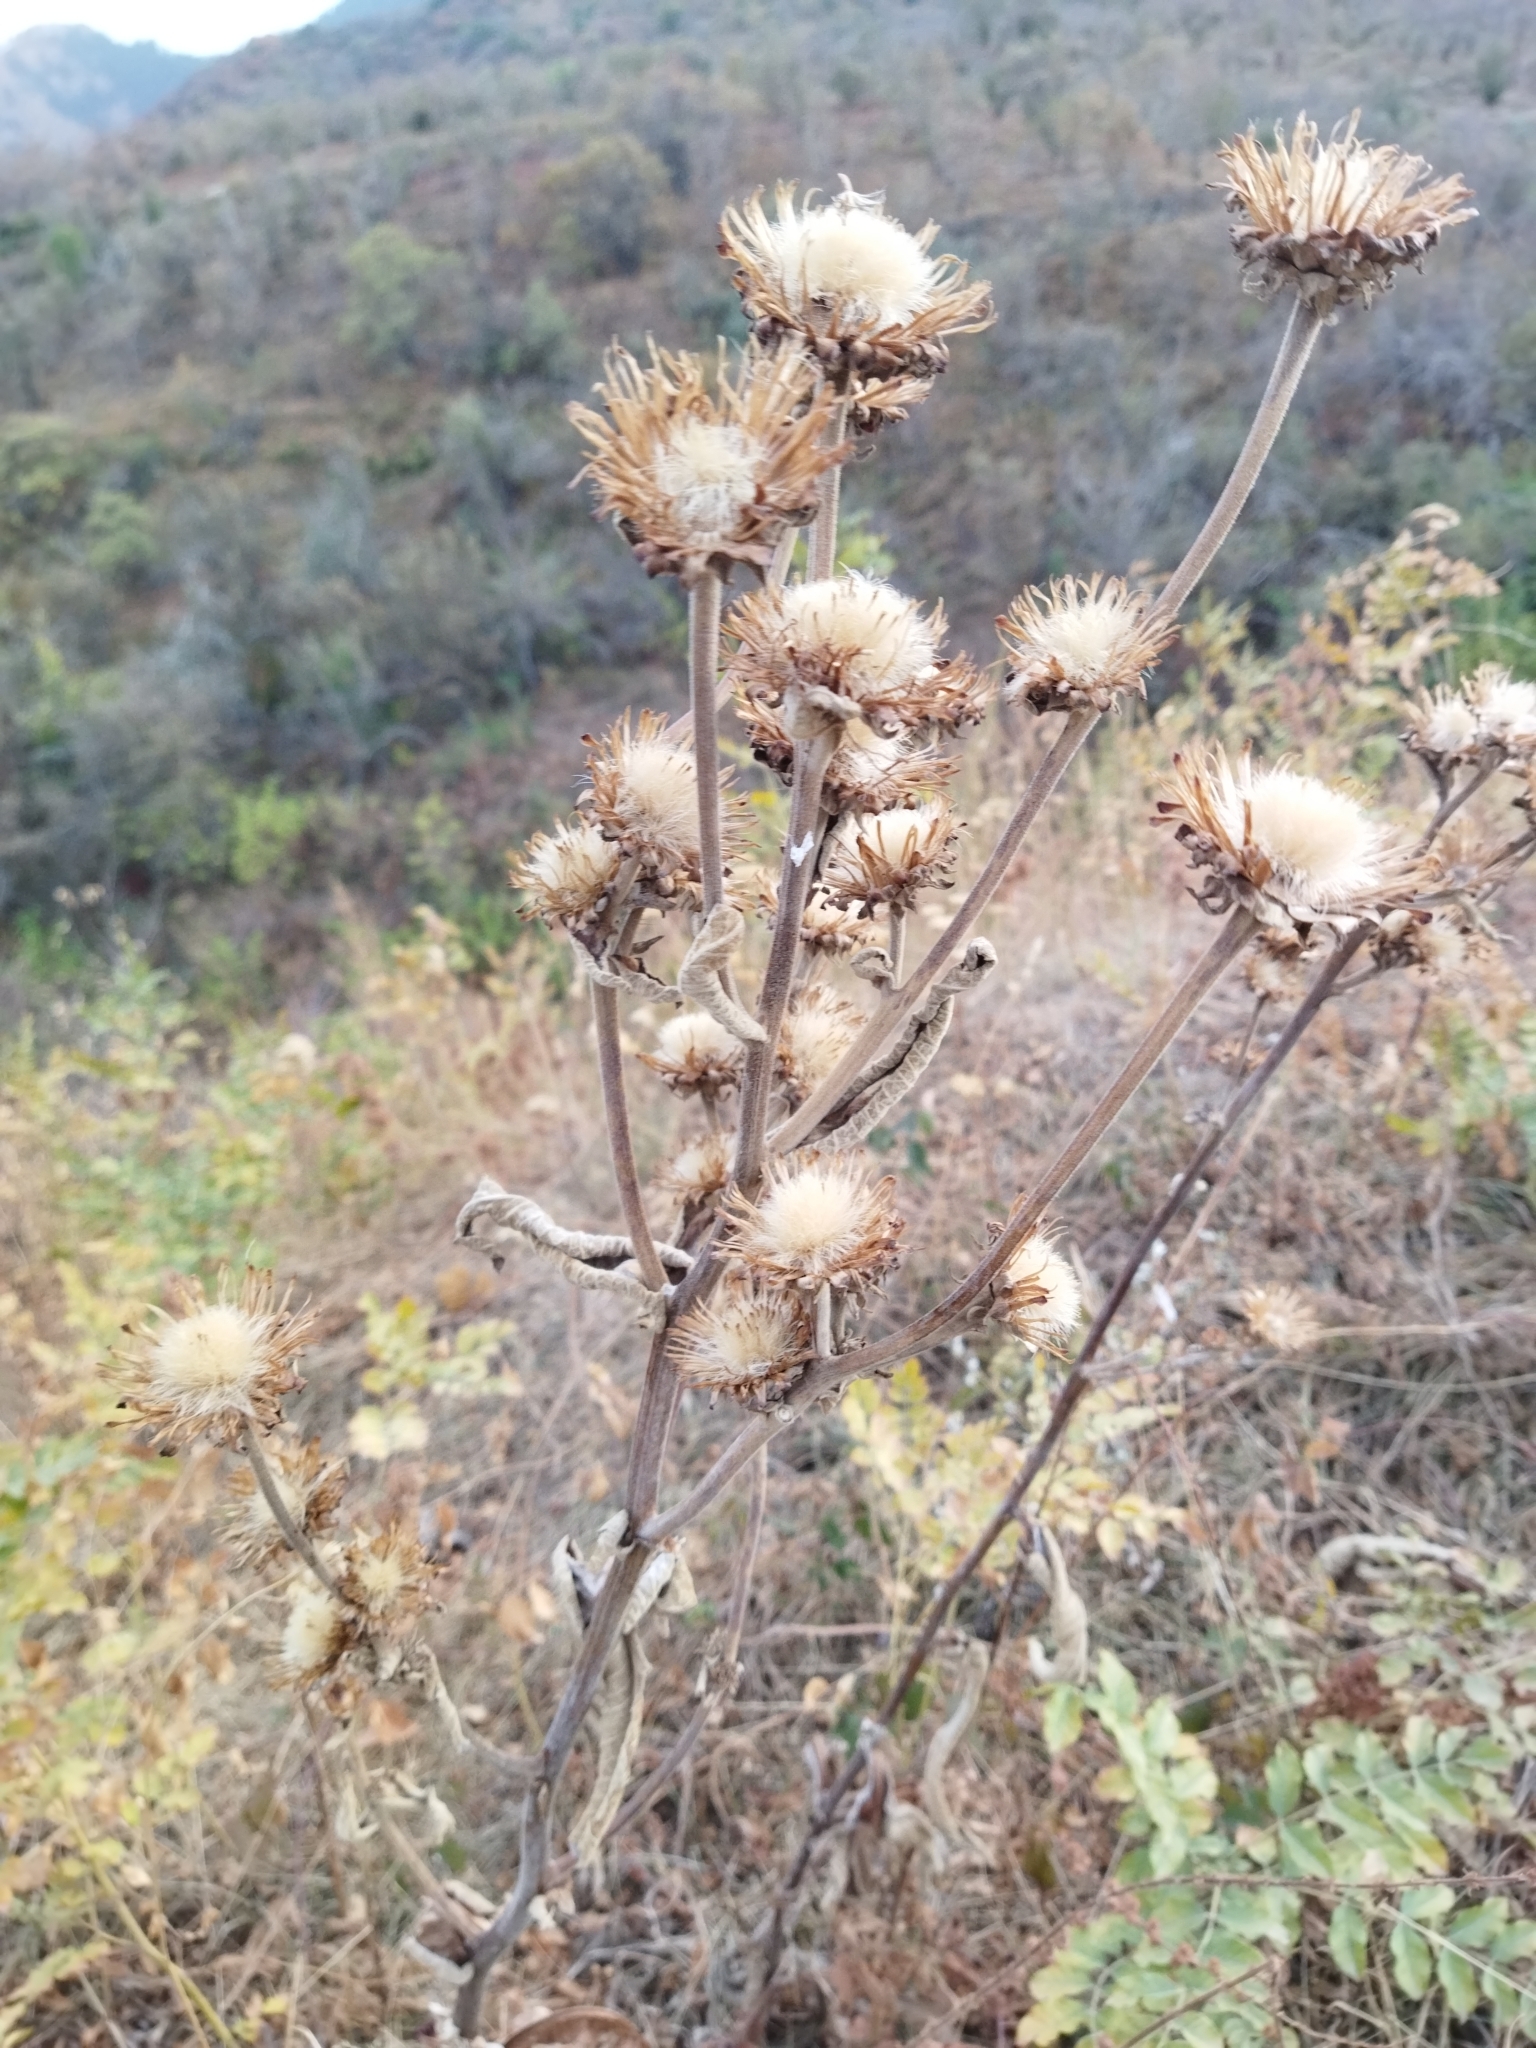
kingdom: Plantae
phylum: Tracheophyta
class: Magnoliopsida
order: Asterales
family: Asteraceae
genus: Inula
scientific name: Inula helenium
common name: Elecampane
